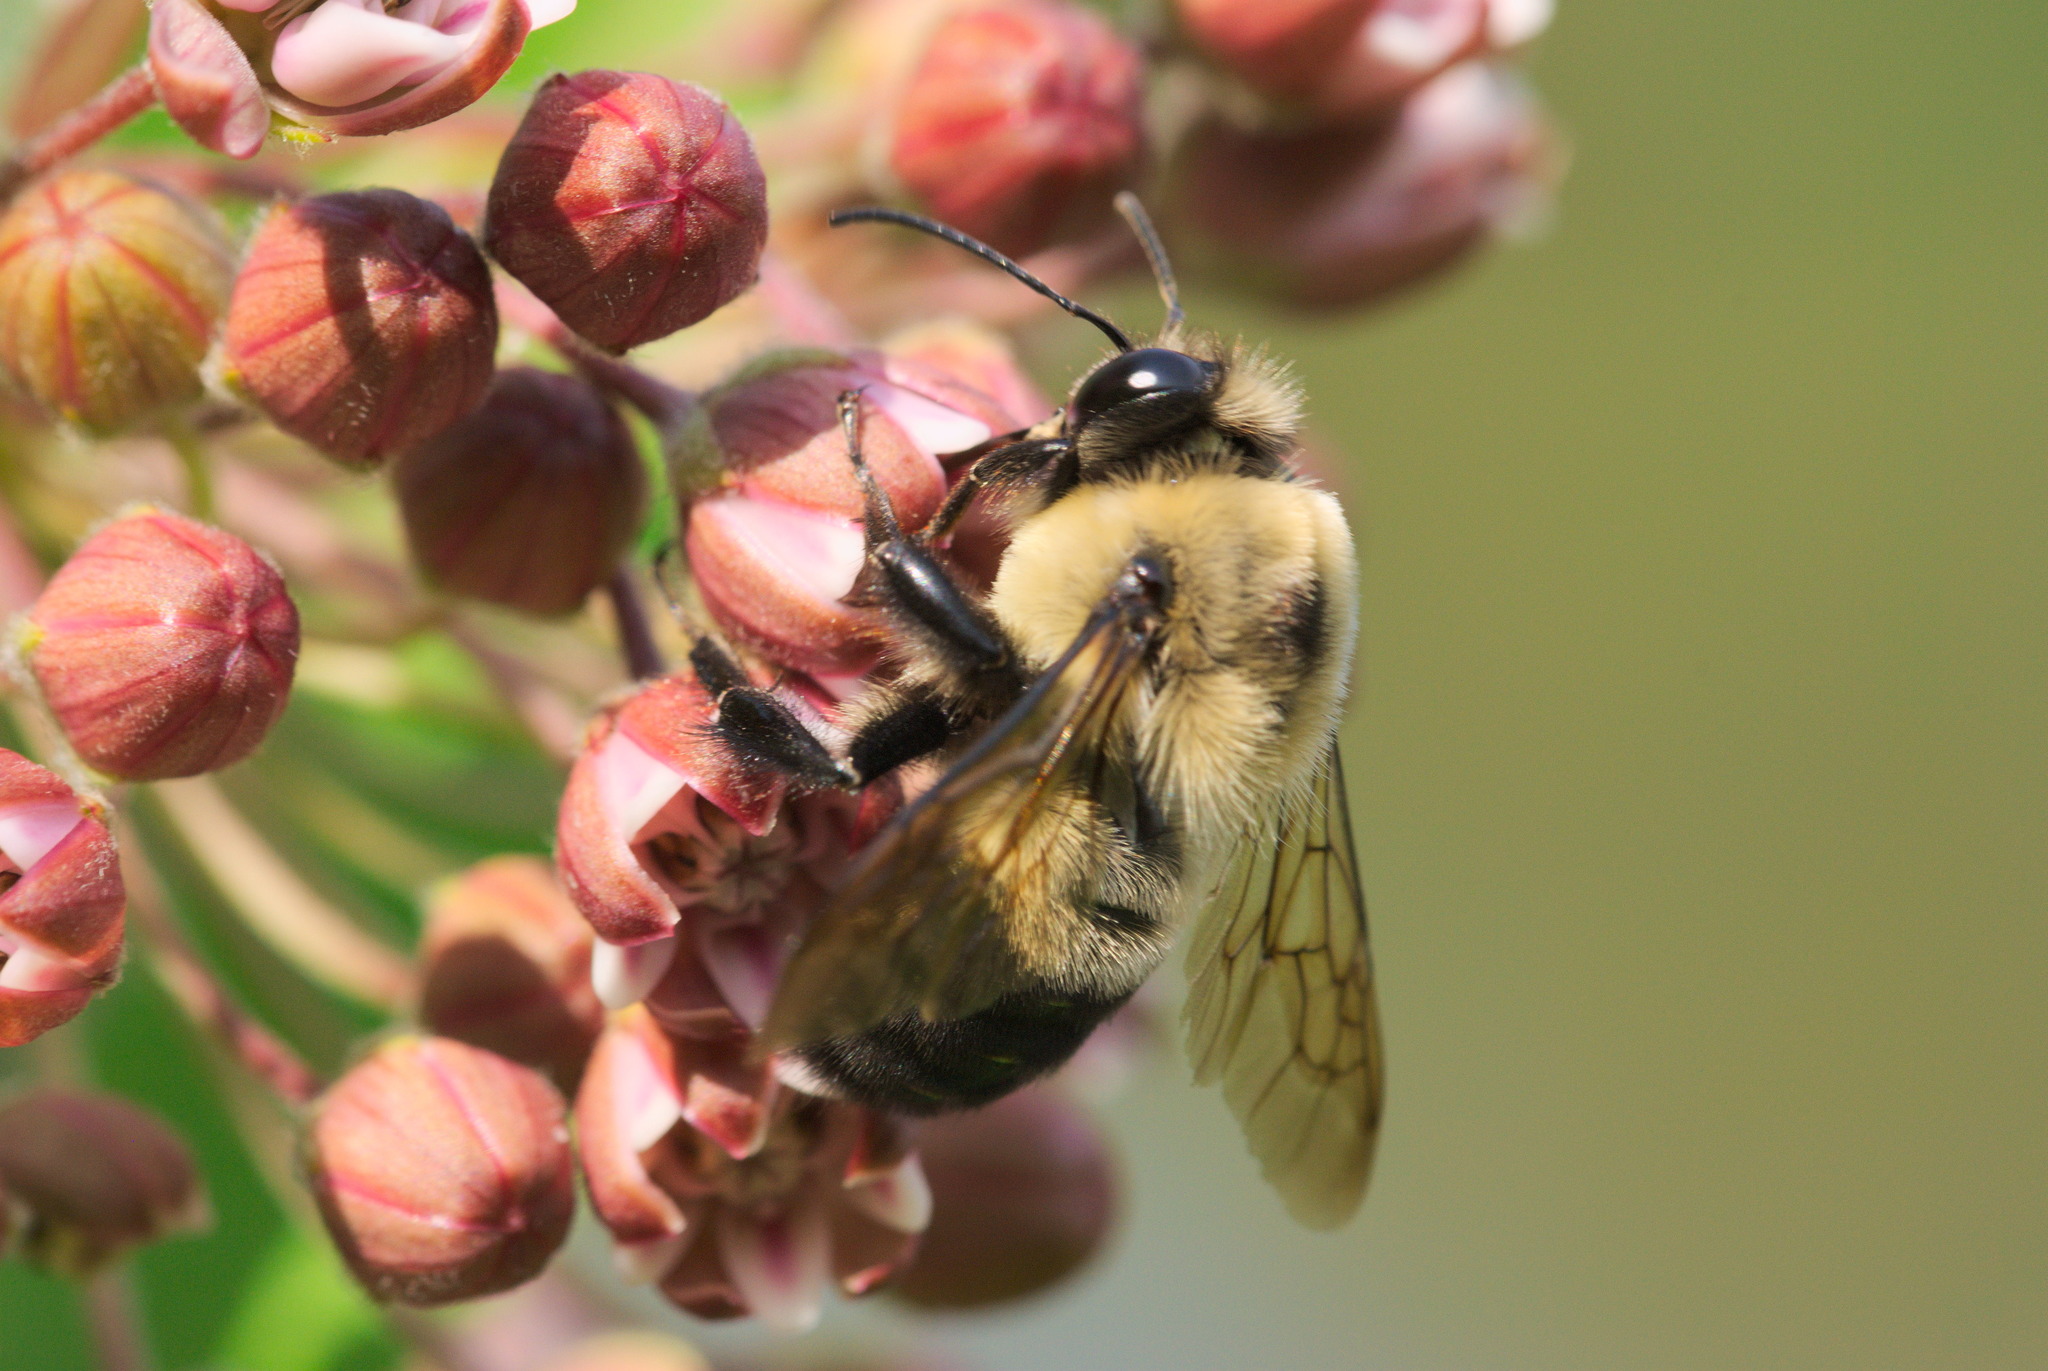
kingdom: Animalia
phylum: Arthropoda
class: Insecta
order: Hymenoptera
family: Apidae
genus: Bombus
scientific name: Bombus griseocollis
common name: Brown-belted bumble bee
